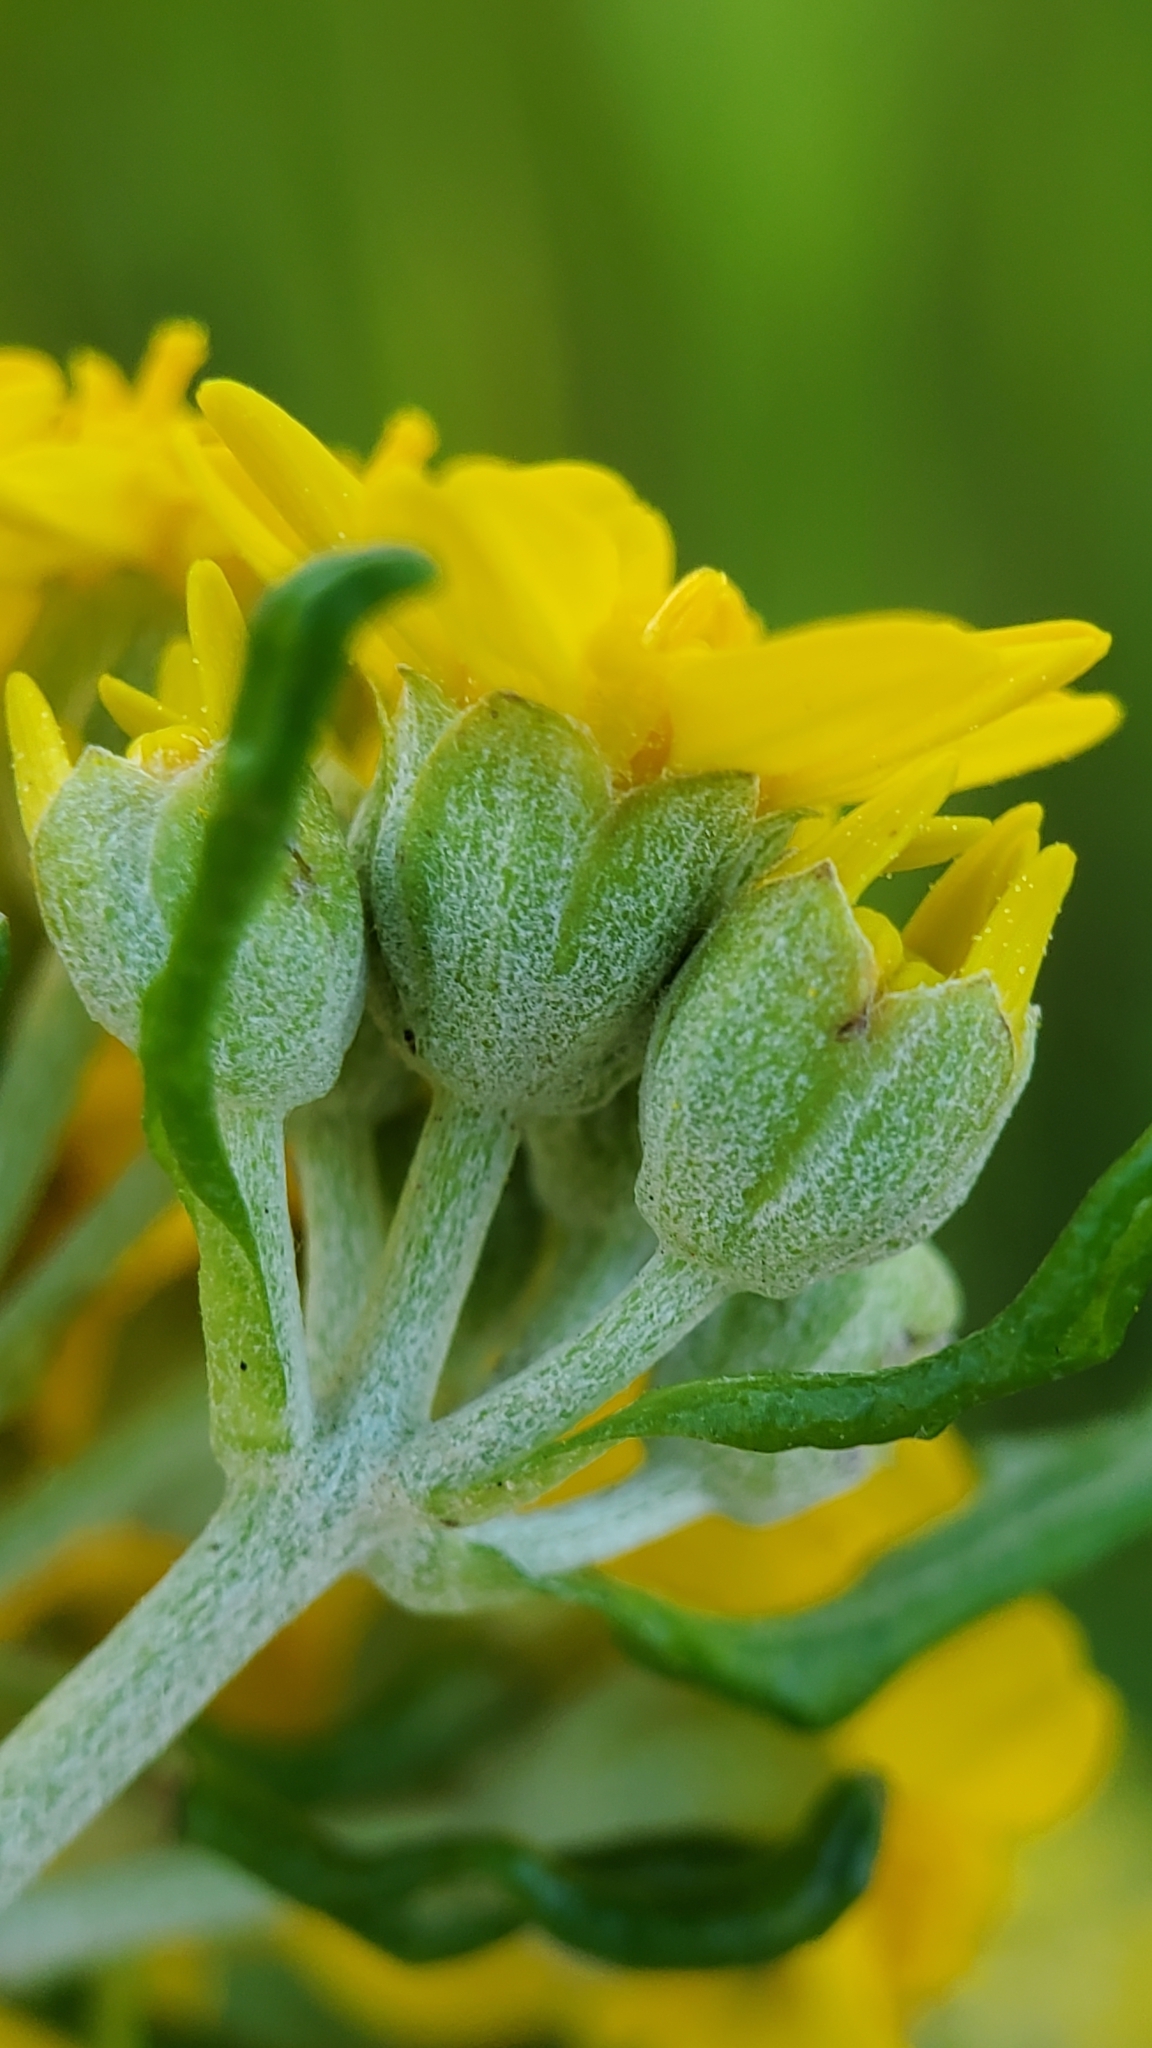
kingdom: Plantae
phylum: Tracheophyta
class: Magnoliopsida
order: Asterales
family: Asteraceae
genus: Eriophyllum
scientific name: Eriophyllum confertiflorum
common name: Golden-yarrow
